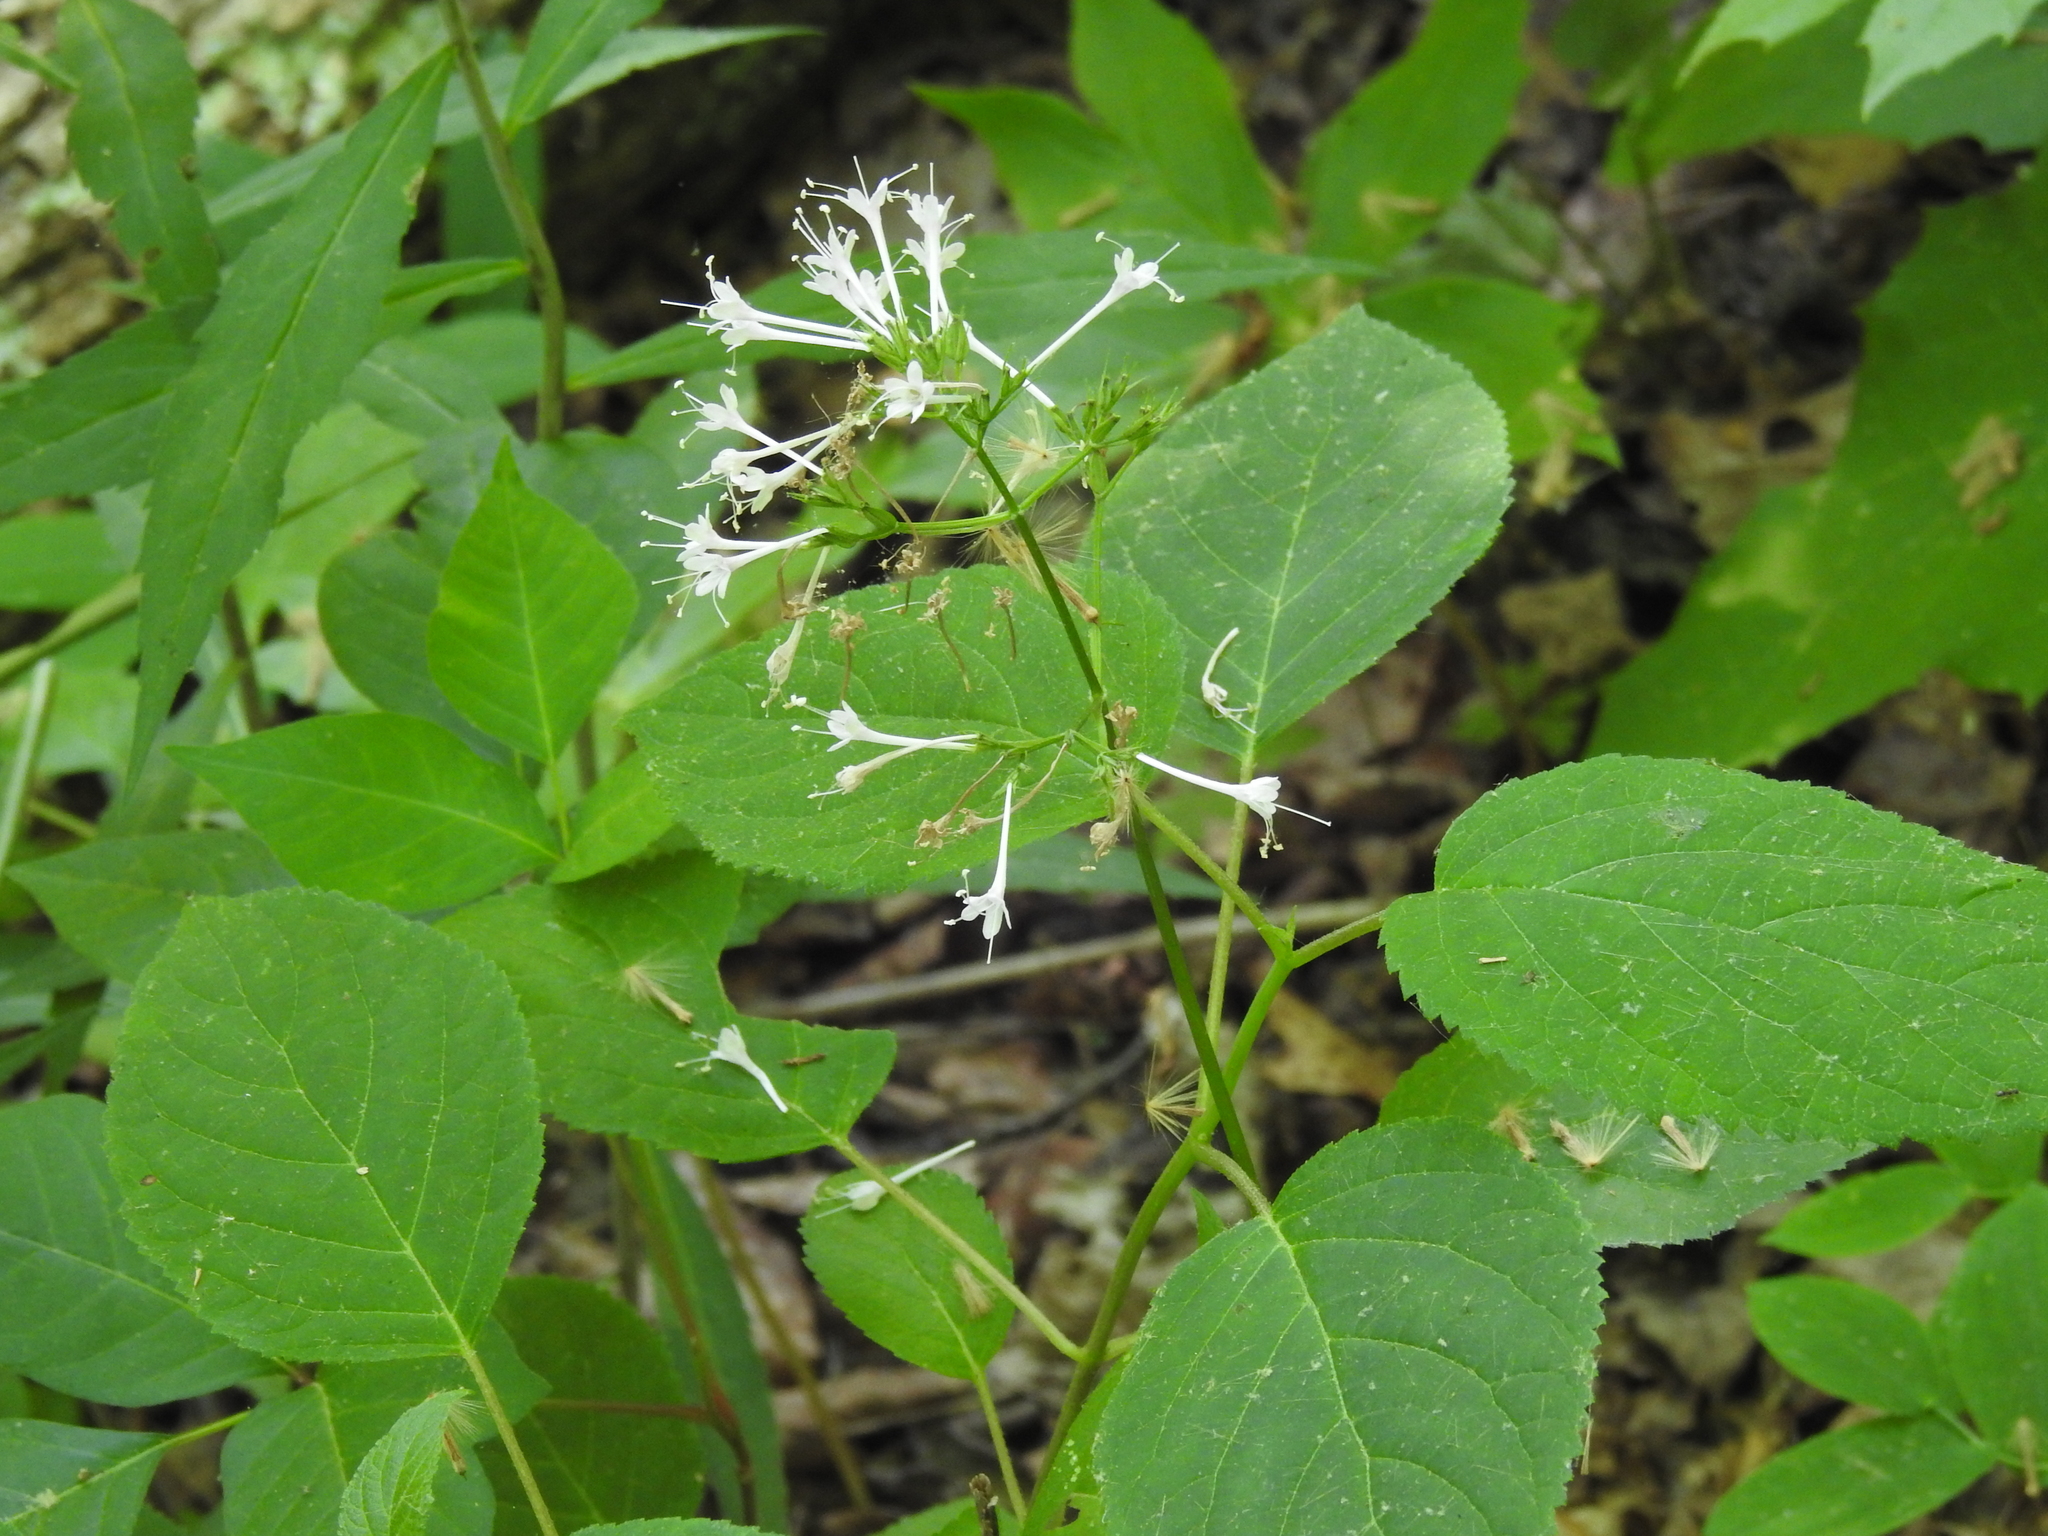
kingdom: Plantae
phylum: Tracheophyta
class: Magnoliopsida
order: Dipsacales
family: Caprifoliaceae
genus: Valeriana
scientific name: Valeriana pauciflora
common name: Long-tube valeriana
